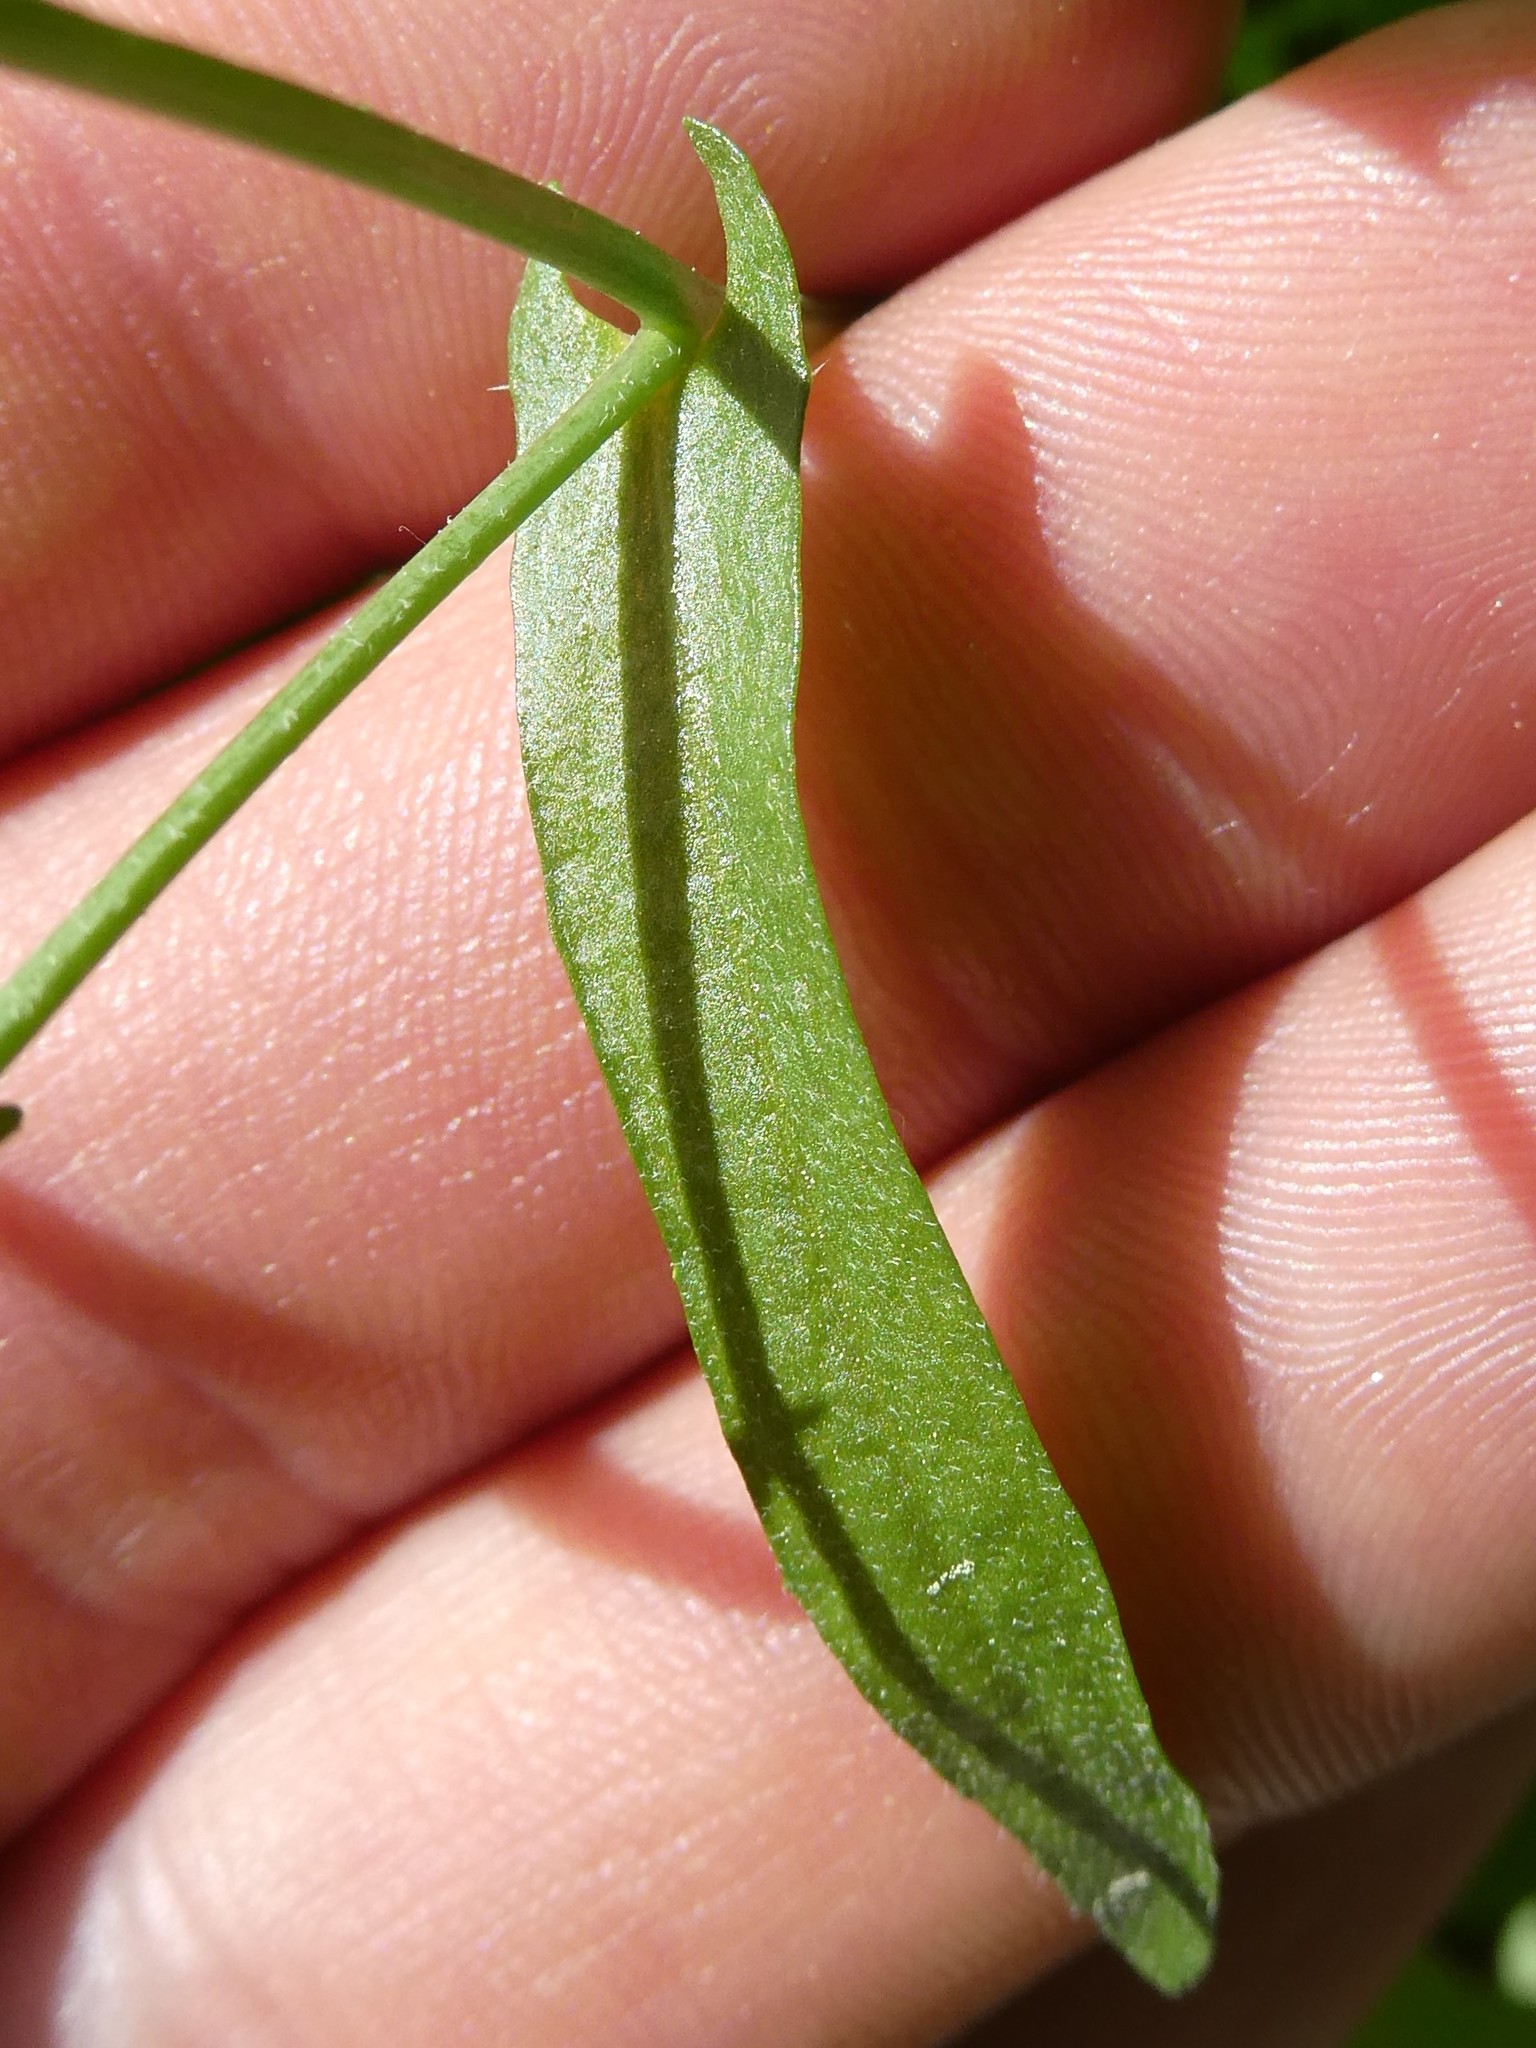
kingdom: Plantae
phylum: Tracheophyta
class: Magnoliopsida
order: Brassicales
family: Brassicaceae
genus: Capsella
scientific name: Capsella bursa-pastoris
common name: Shepherd's purse
